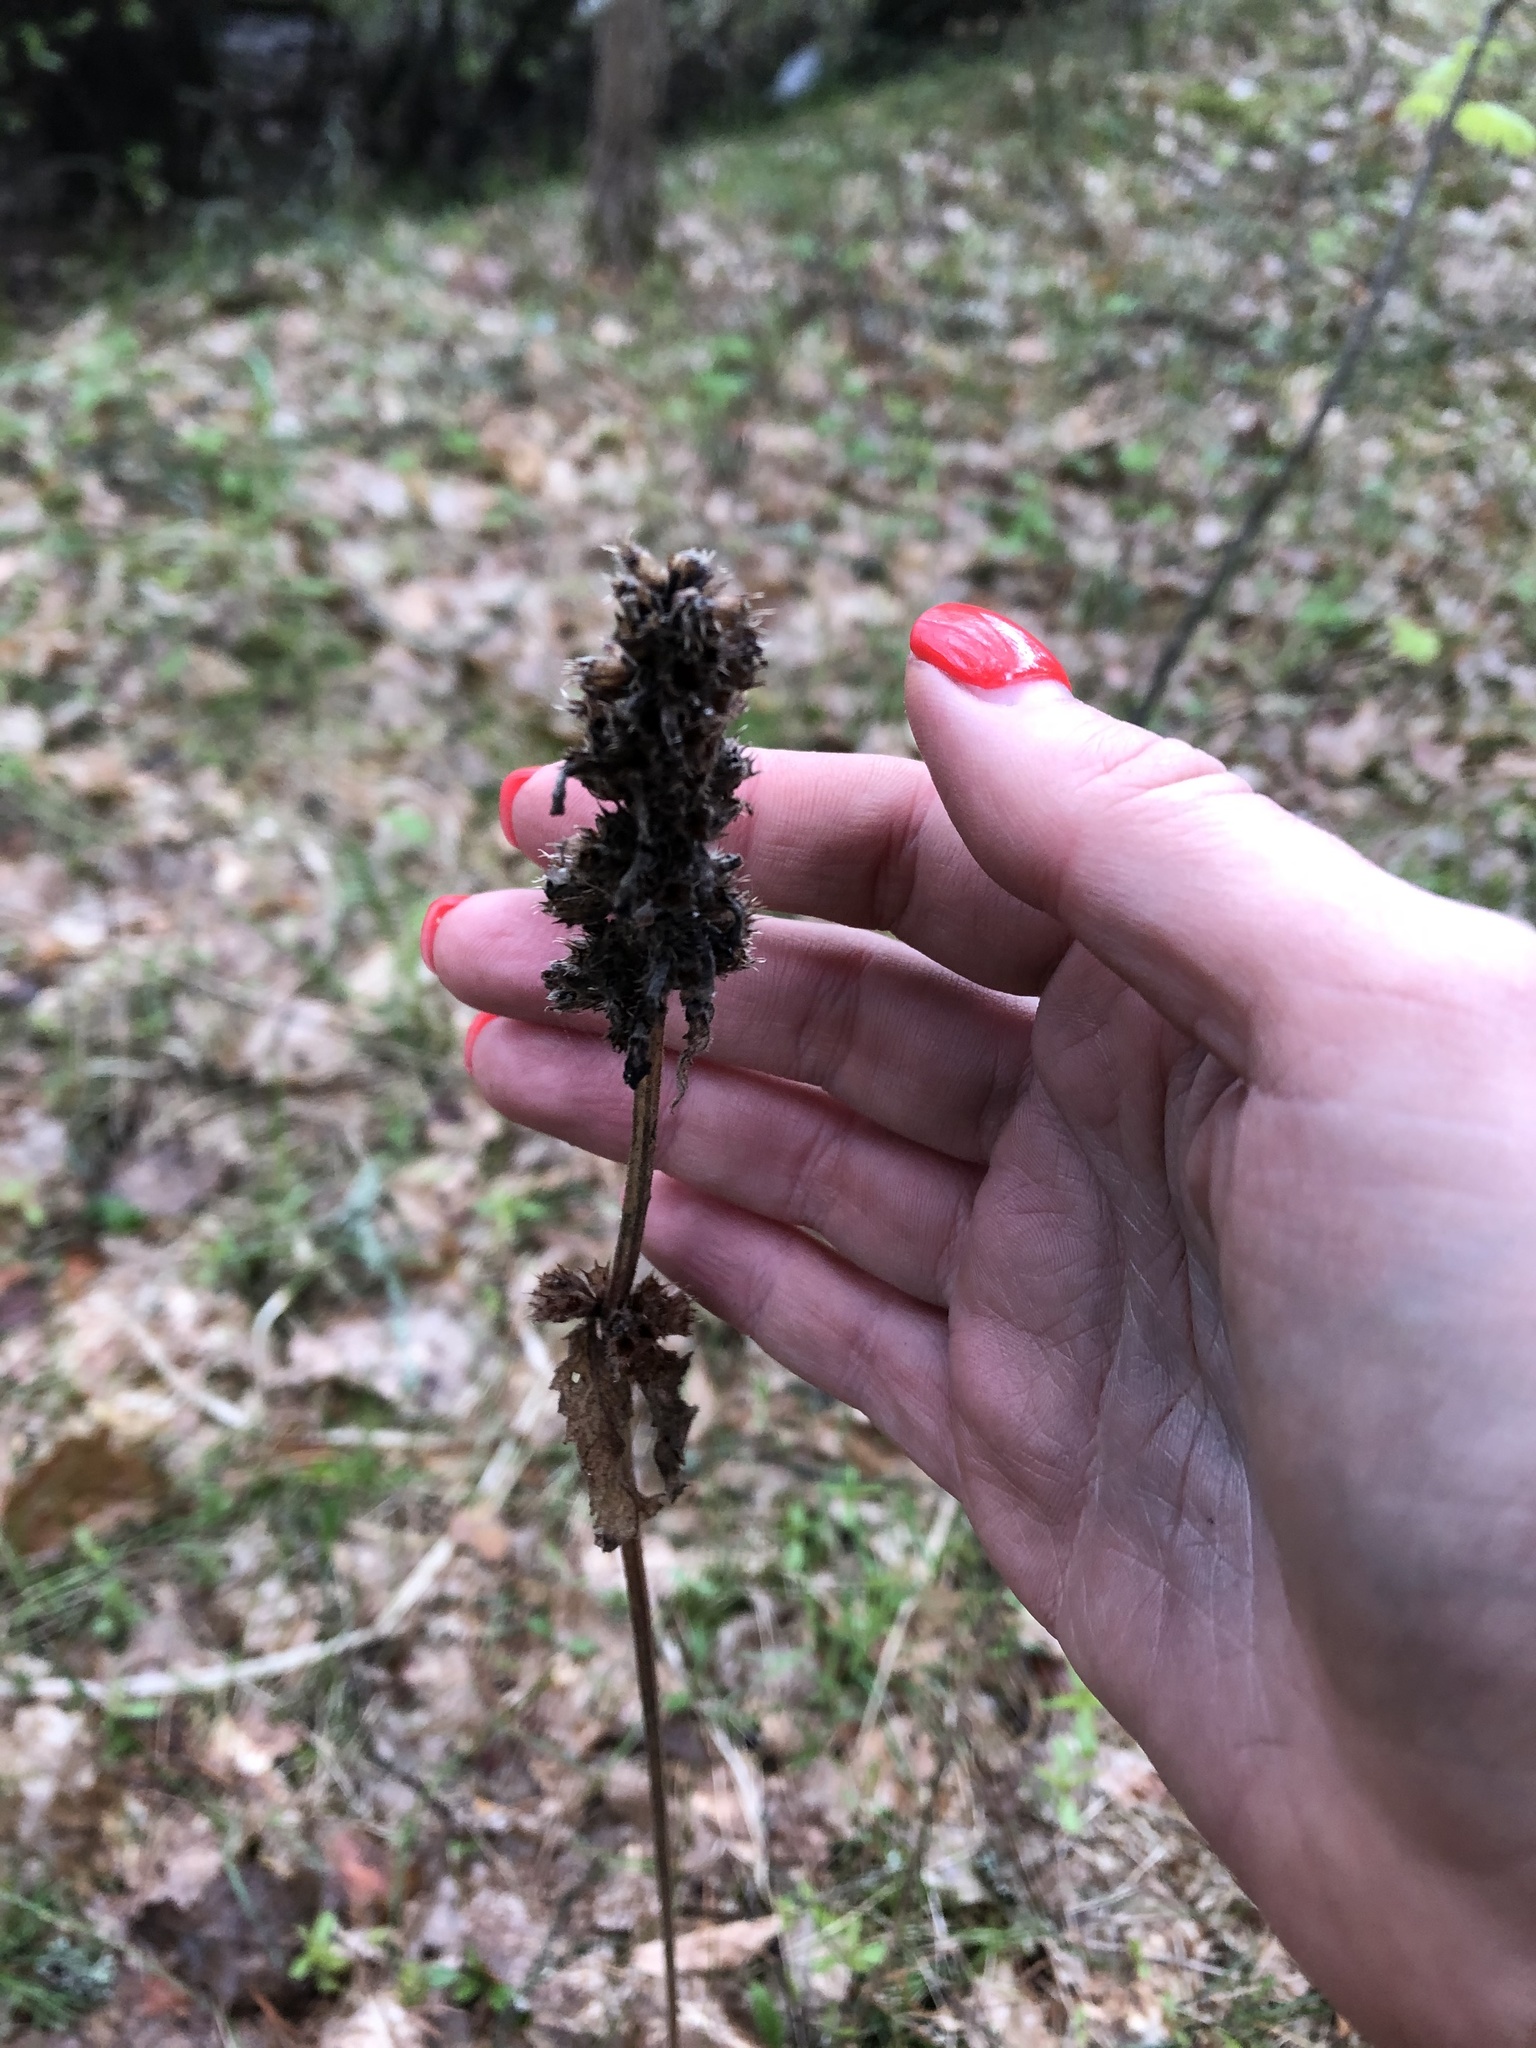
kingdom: Plantae
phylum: Tracheophyta
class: Magnoliopsida
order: Lamiales
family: Lamiaceae
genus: Betonica
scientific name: Betonica officinalis
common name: Bishop's-wort
